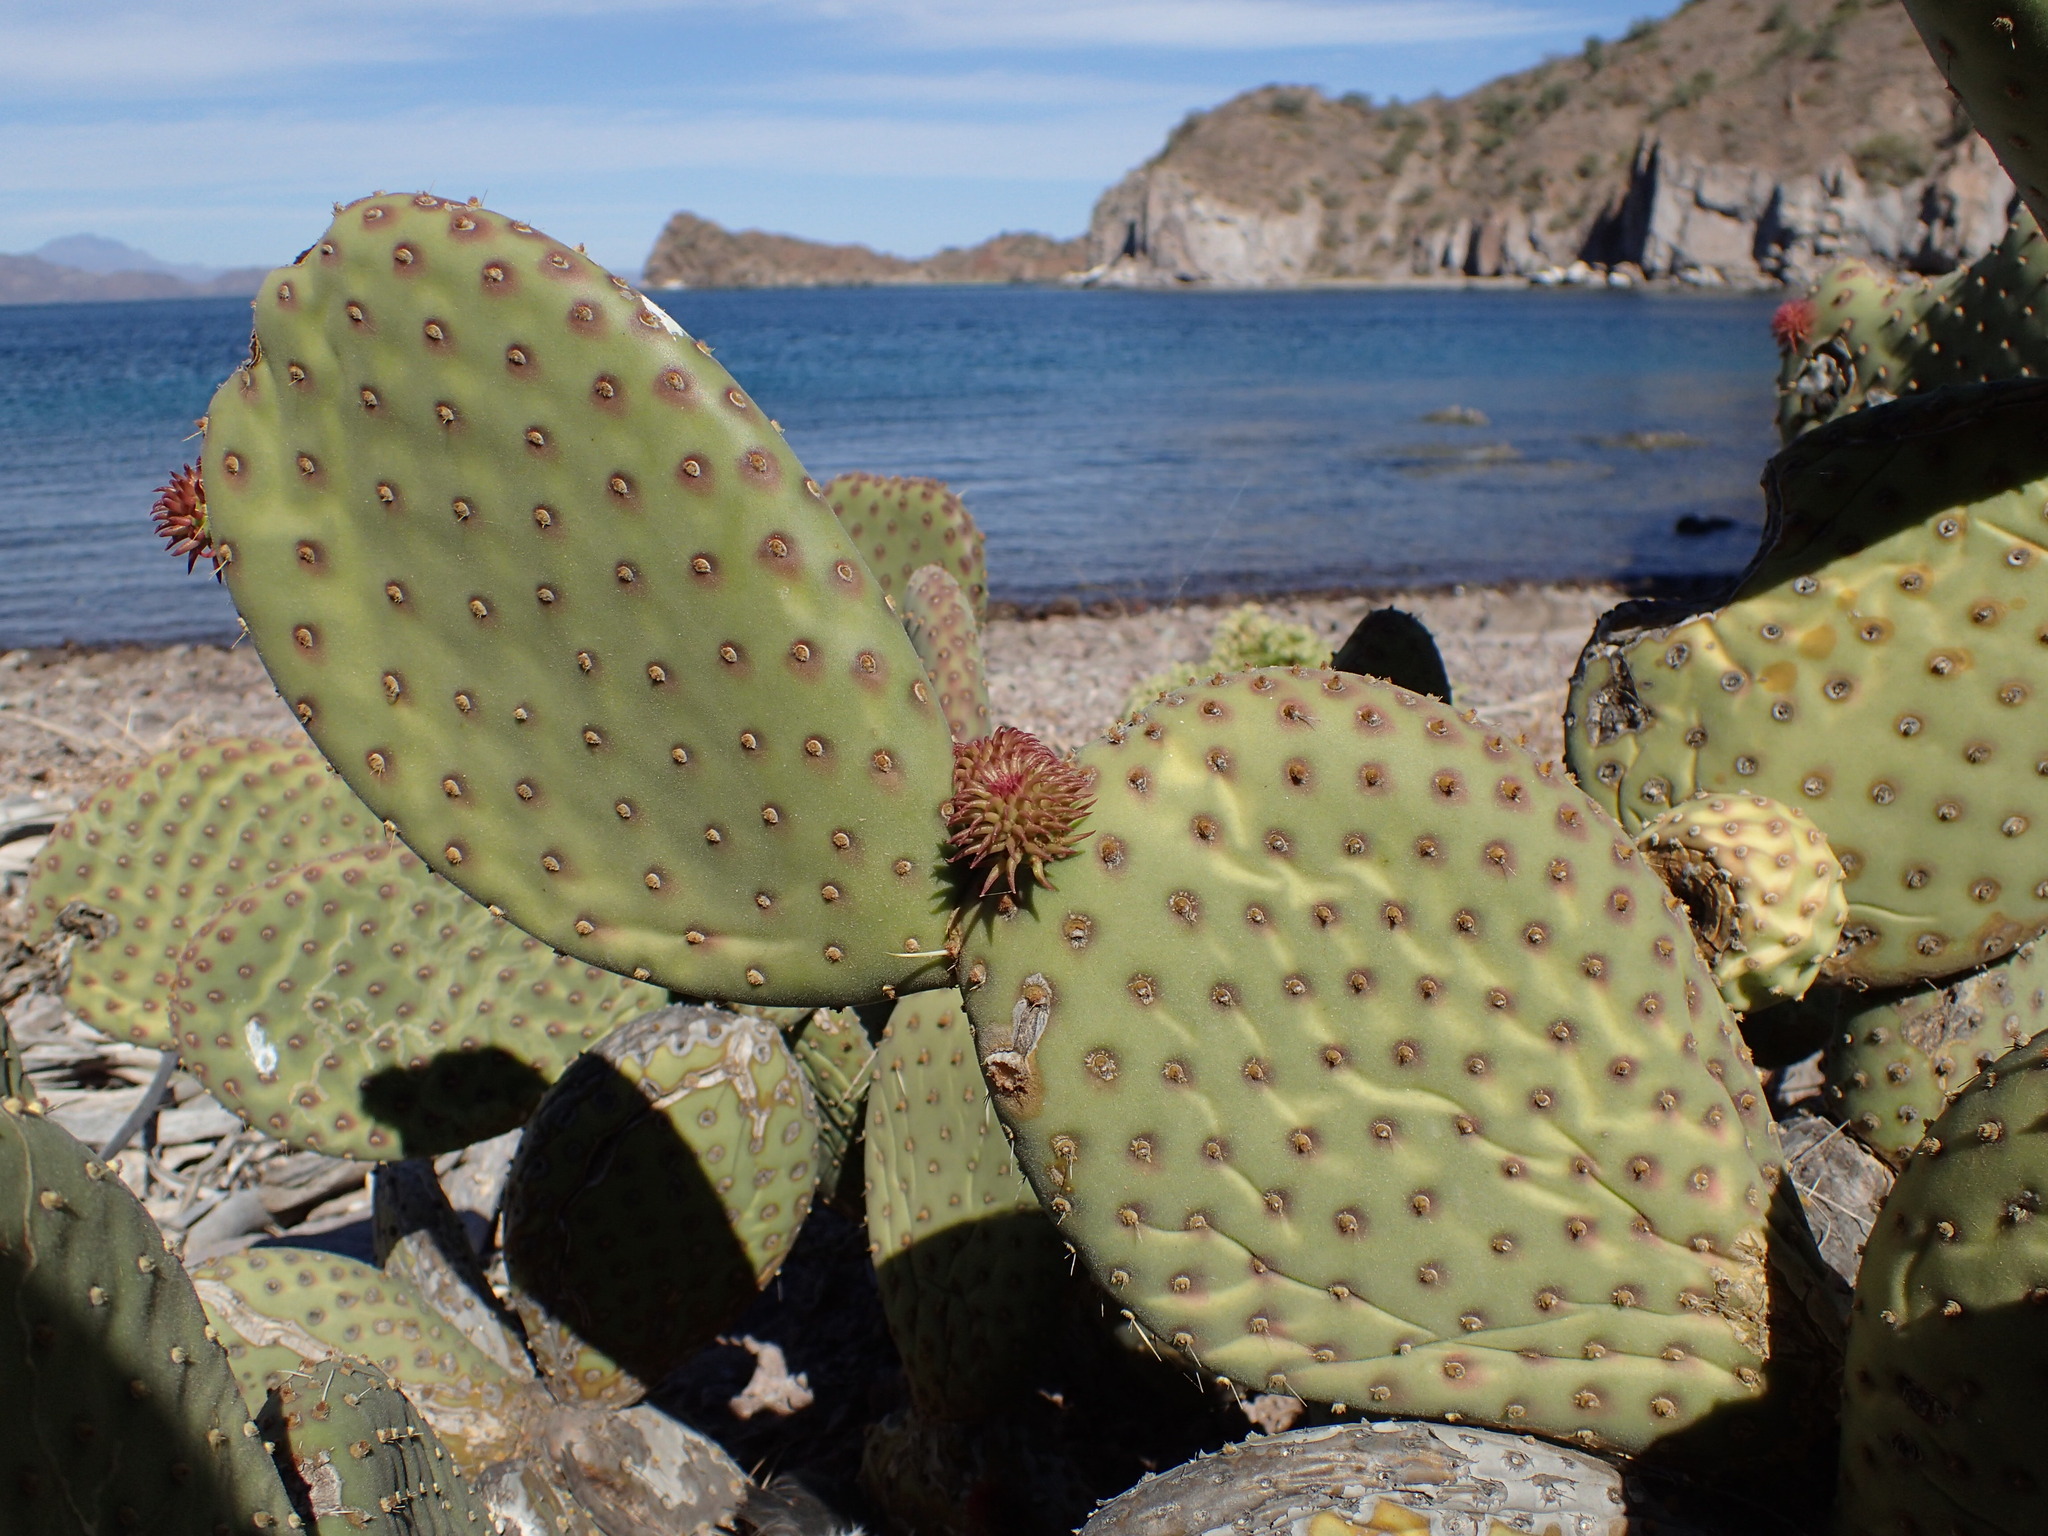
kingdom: Plantae
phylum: Tracheophyta
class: Magnoliopsida
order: Caryophyllales
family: Cactaceae
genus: Opuntia
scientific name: Opuntia tapona
